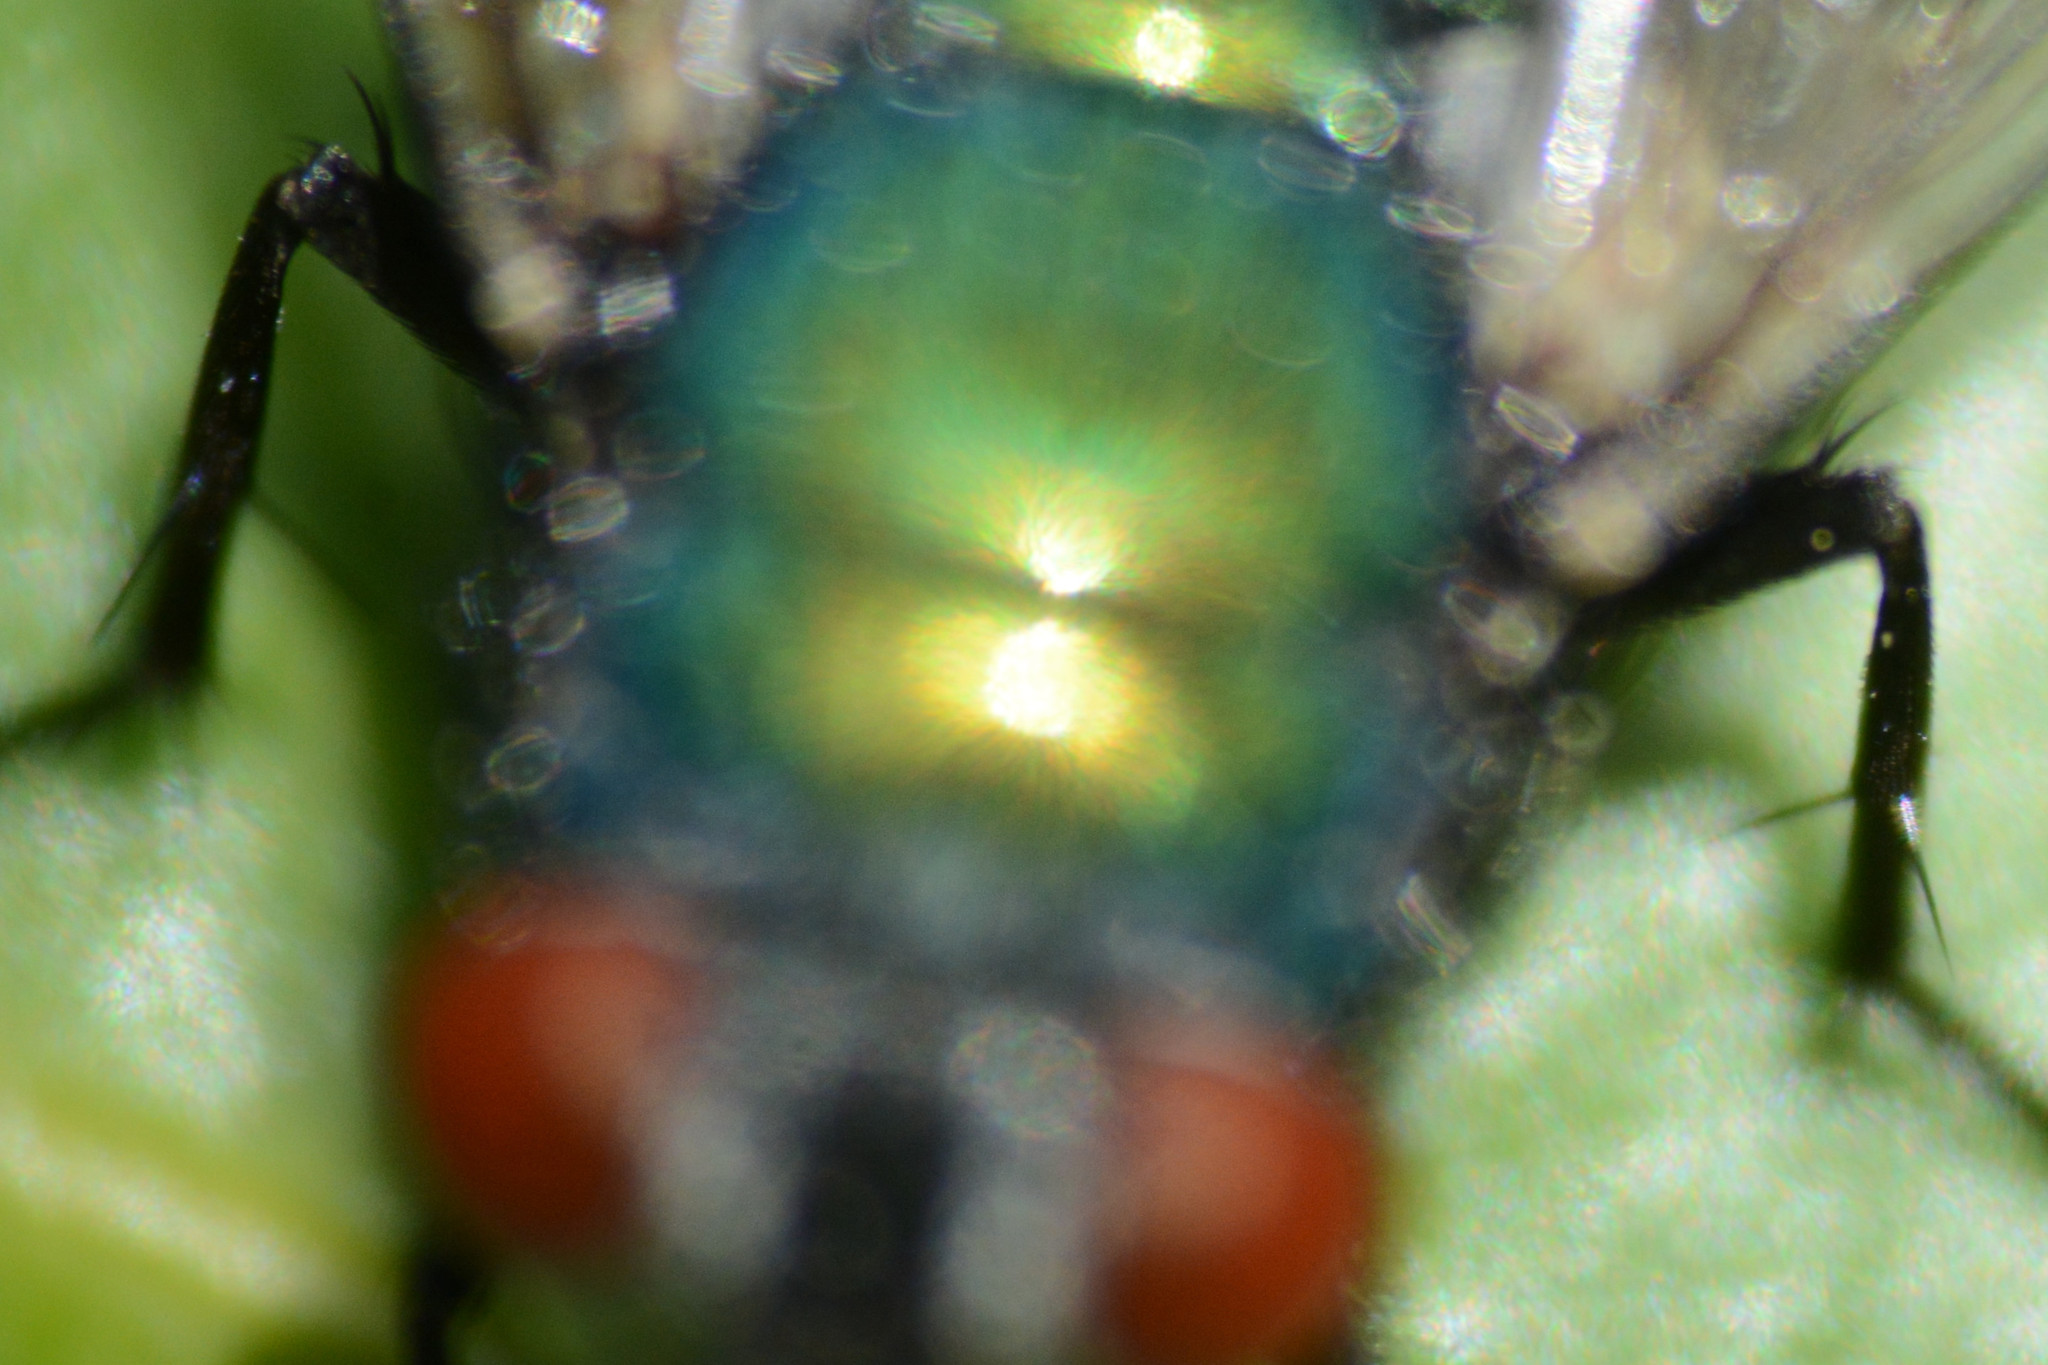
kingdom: Animalia
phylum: Arthropoda
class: Insecta
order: Diptera
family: Calliphoridae
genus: Lucilia
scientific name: Lucilia sericata
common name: Blow fly
